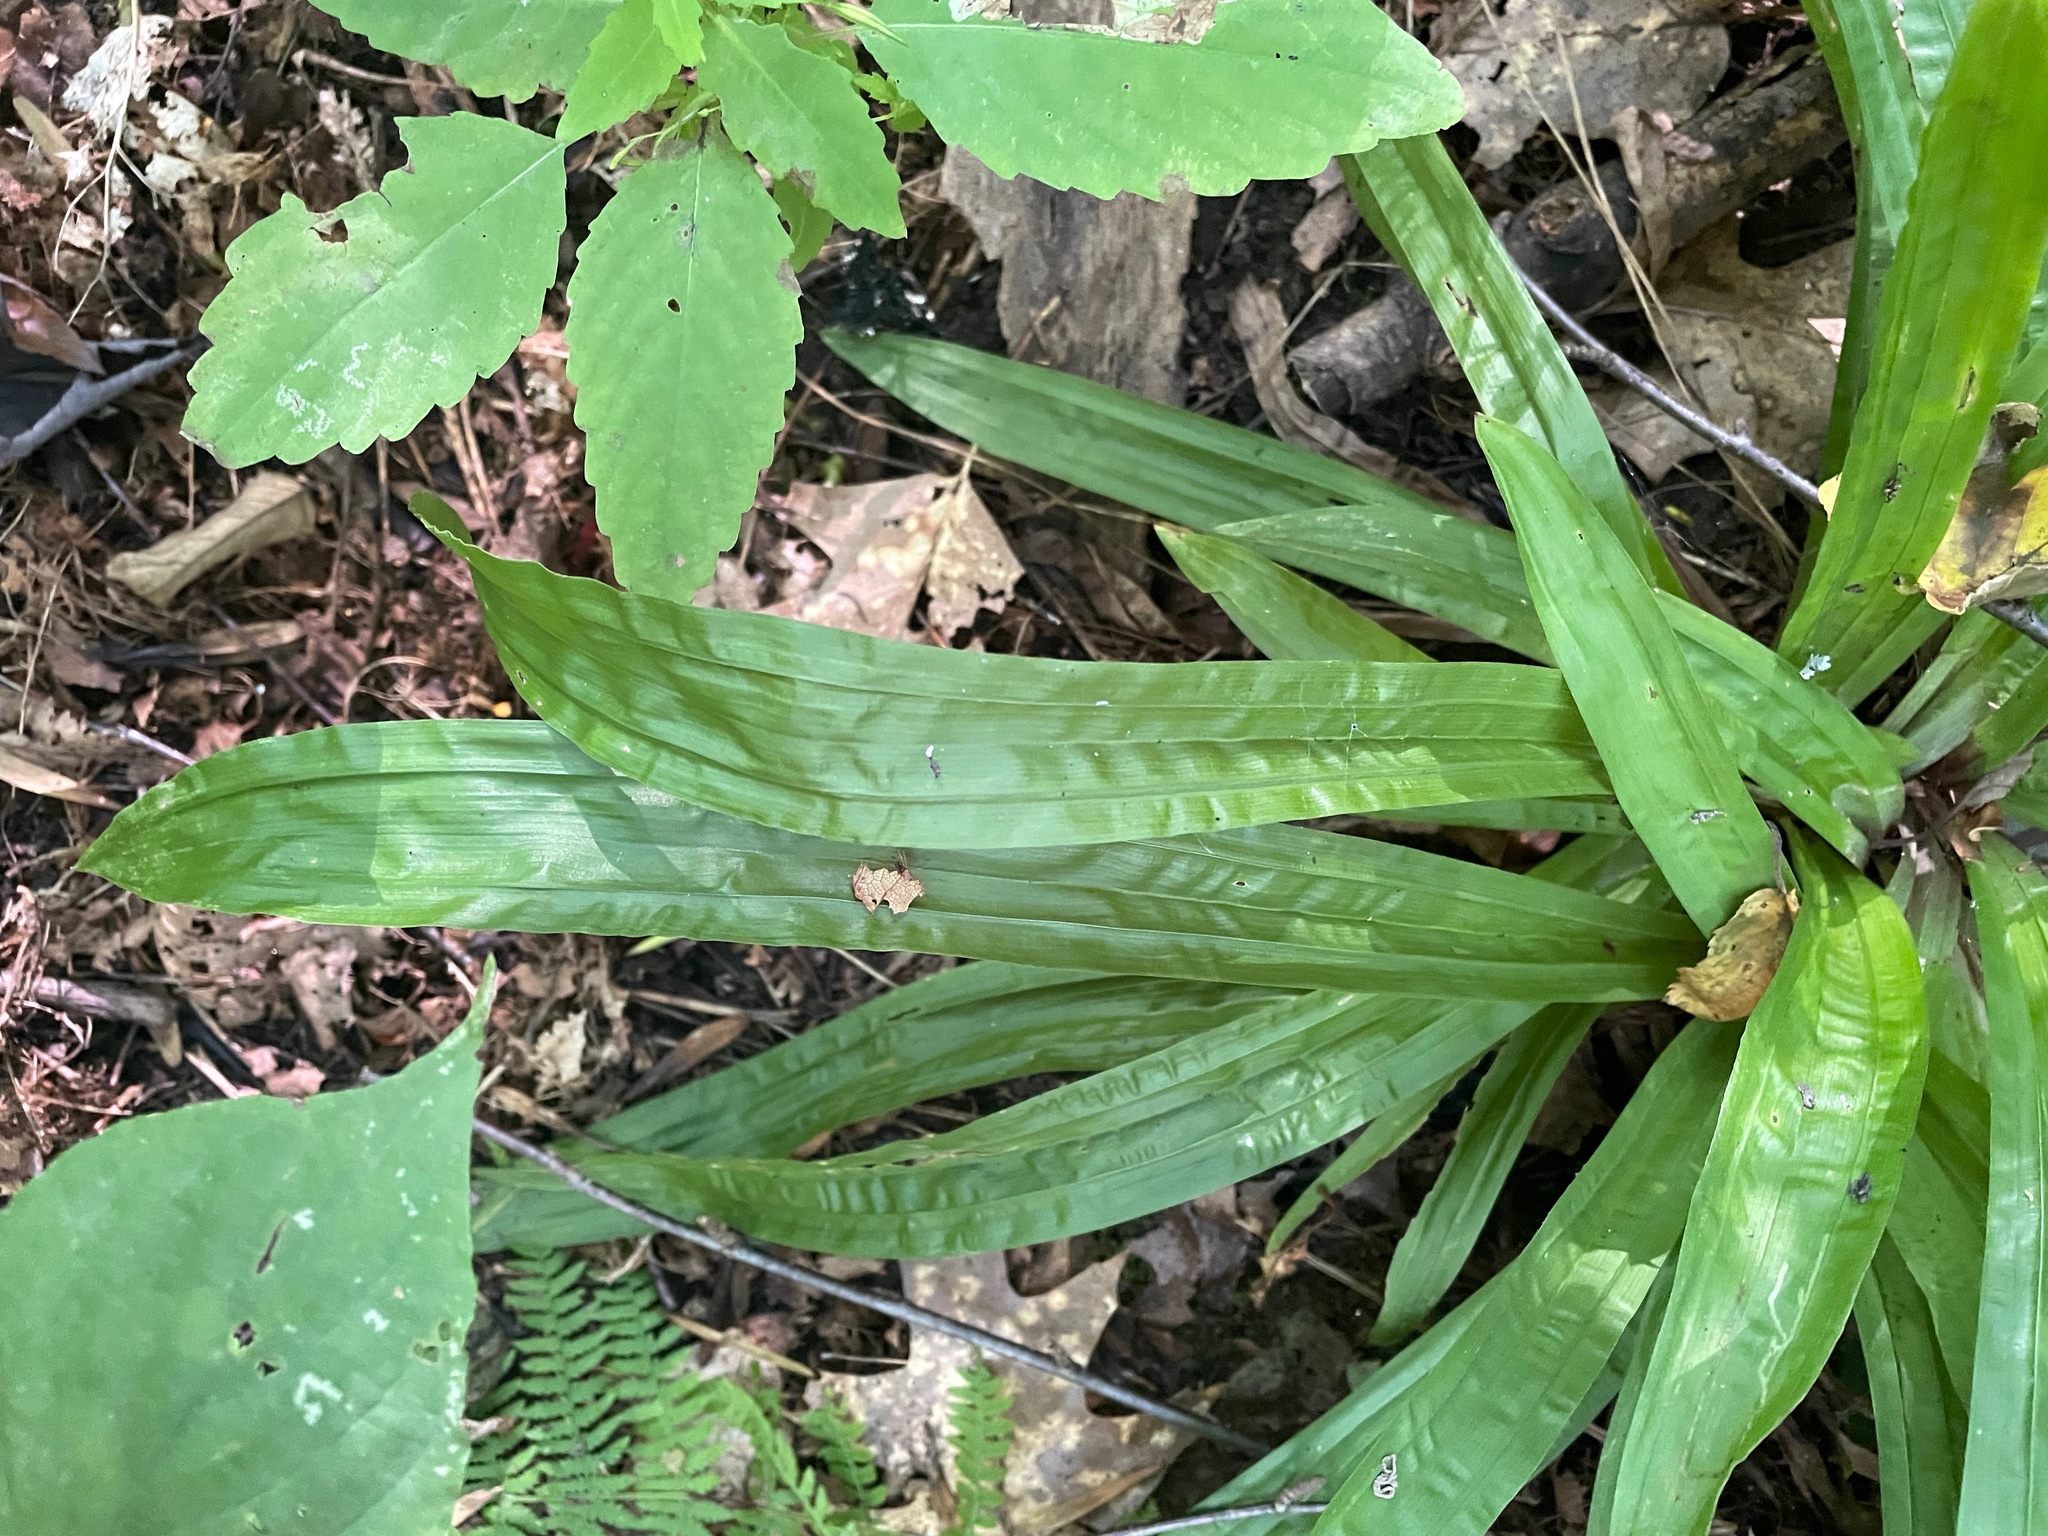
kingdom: Plantae
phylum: Tracheophyta
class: Liliopsida
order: Poales
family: Cyperaceae
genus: Carex
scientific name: Carex plantaginea
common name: Plantain-leaved sedge
